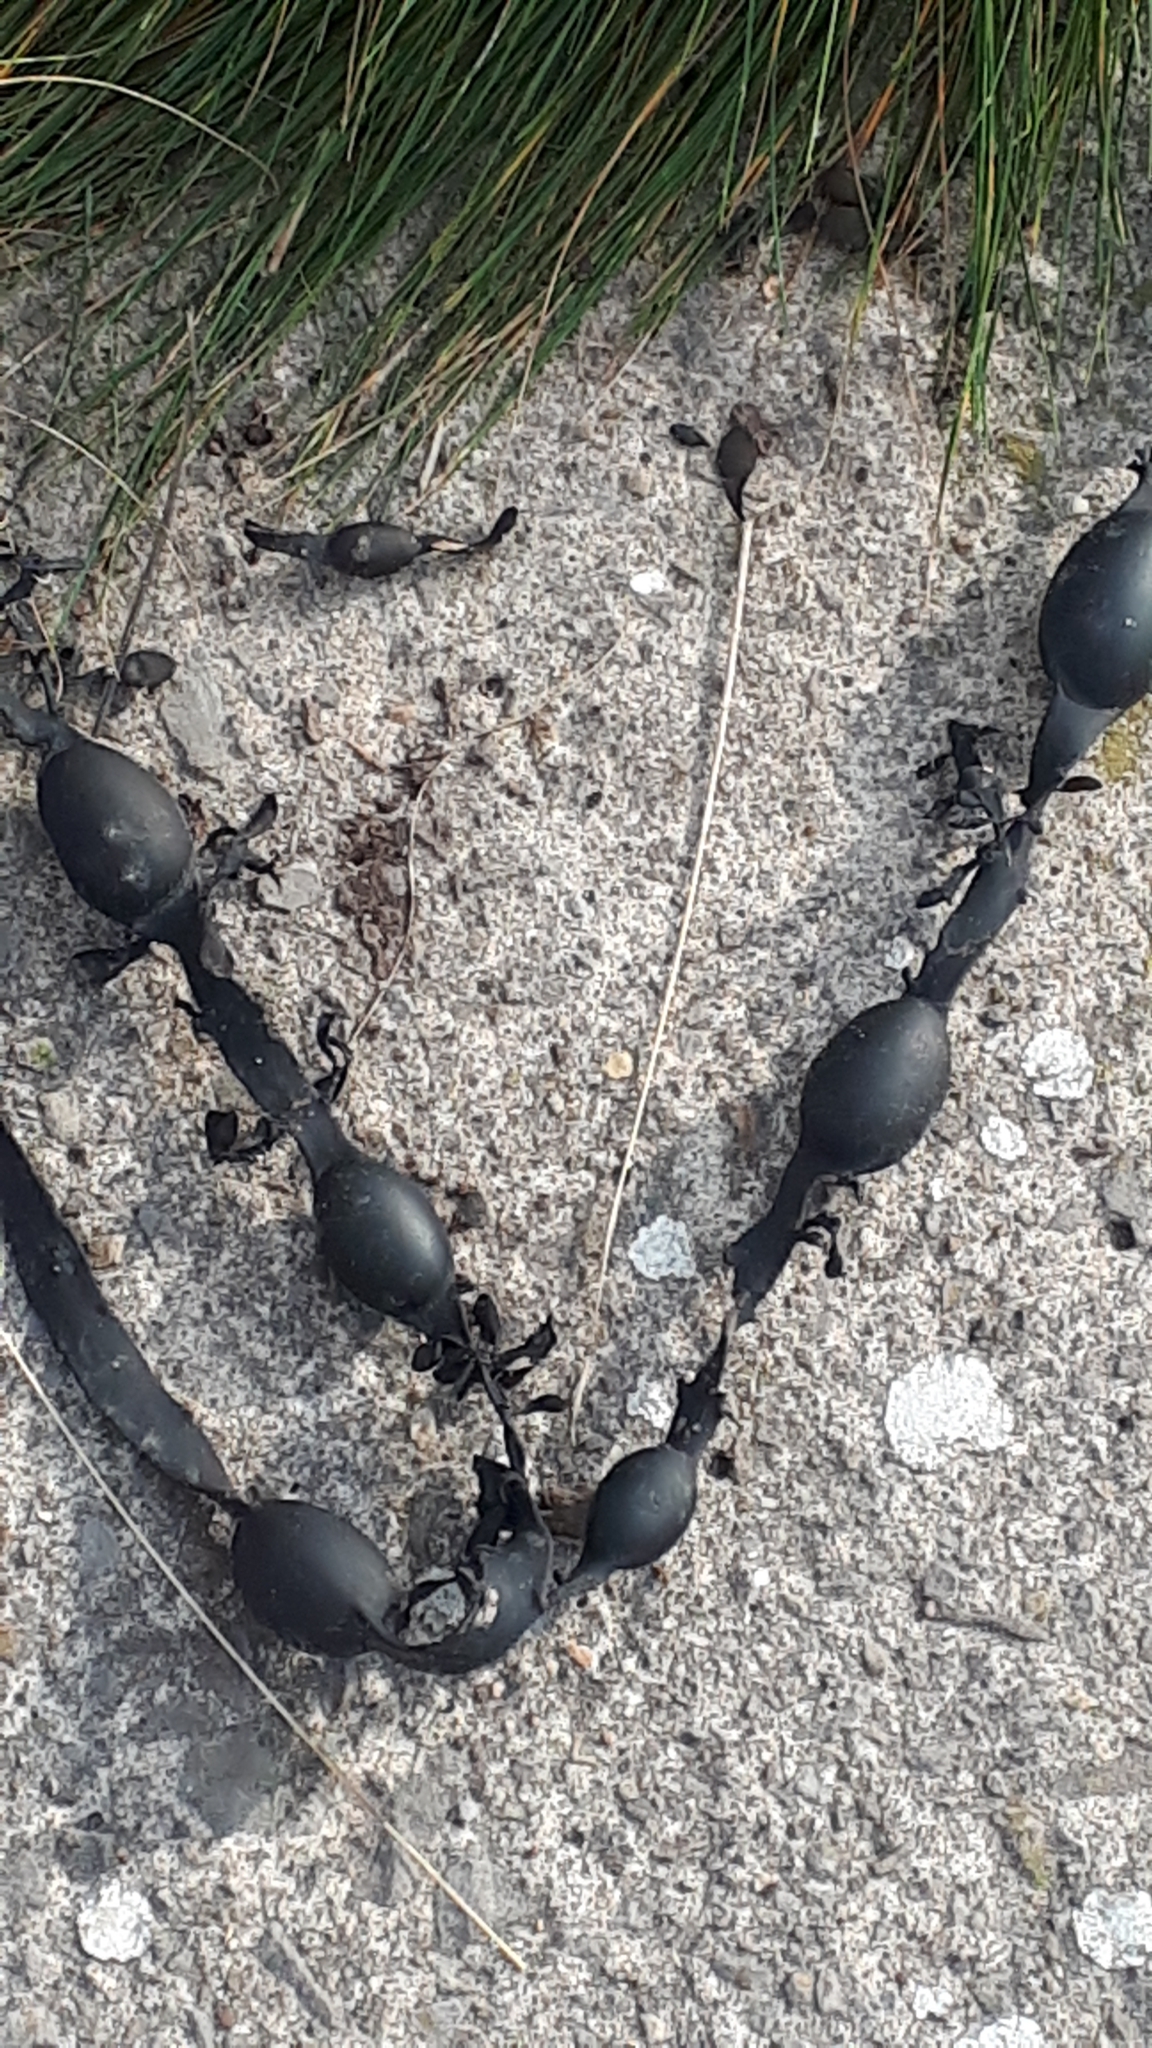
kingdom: Chromista
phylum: Ochrophyta
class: Phaeophyceae
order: Fucales
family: Fucaceae
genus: Ascophyllum
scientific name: Ascophyllum nodosum
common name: Knotted wrack
